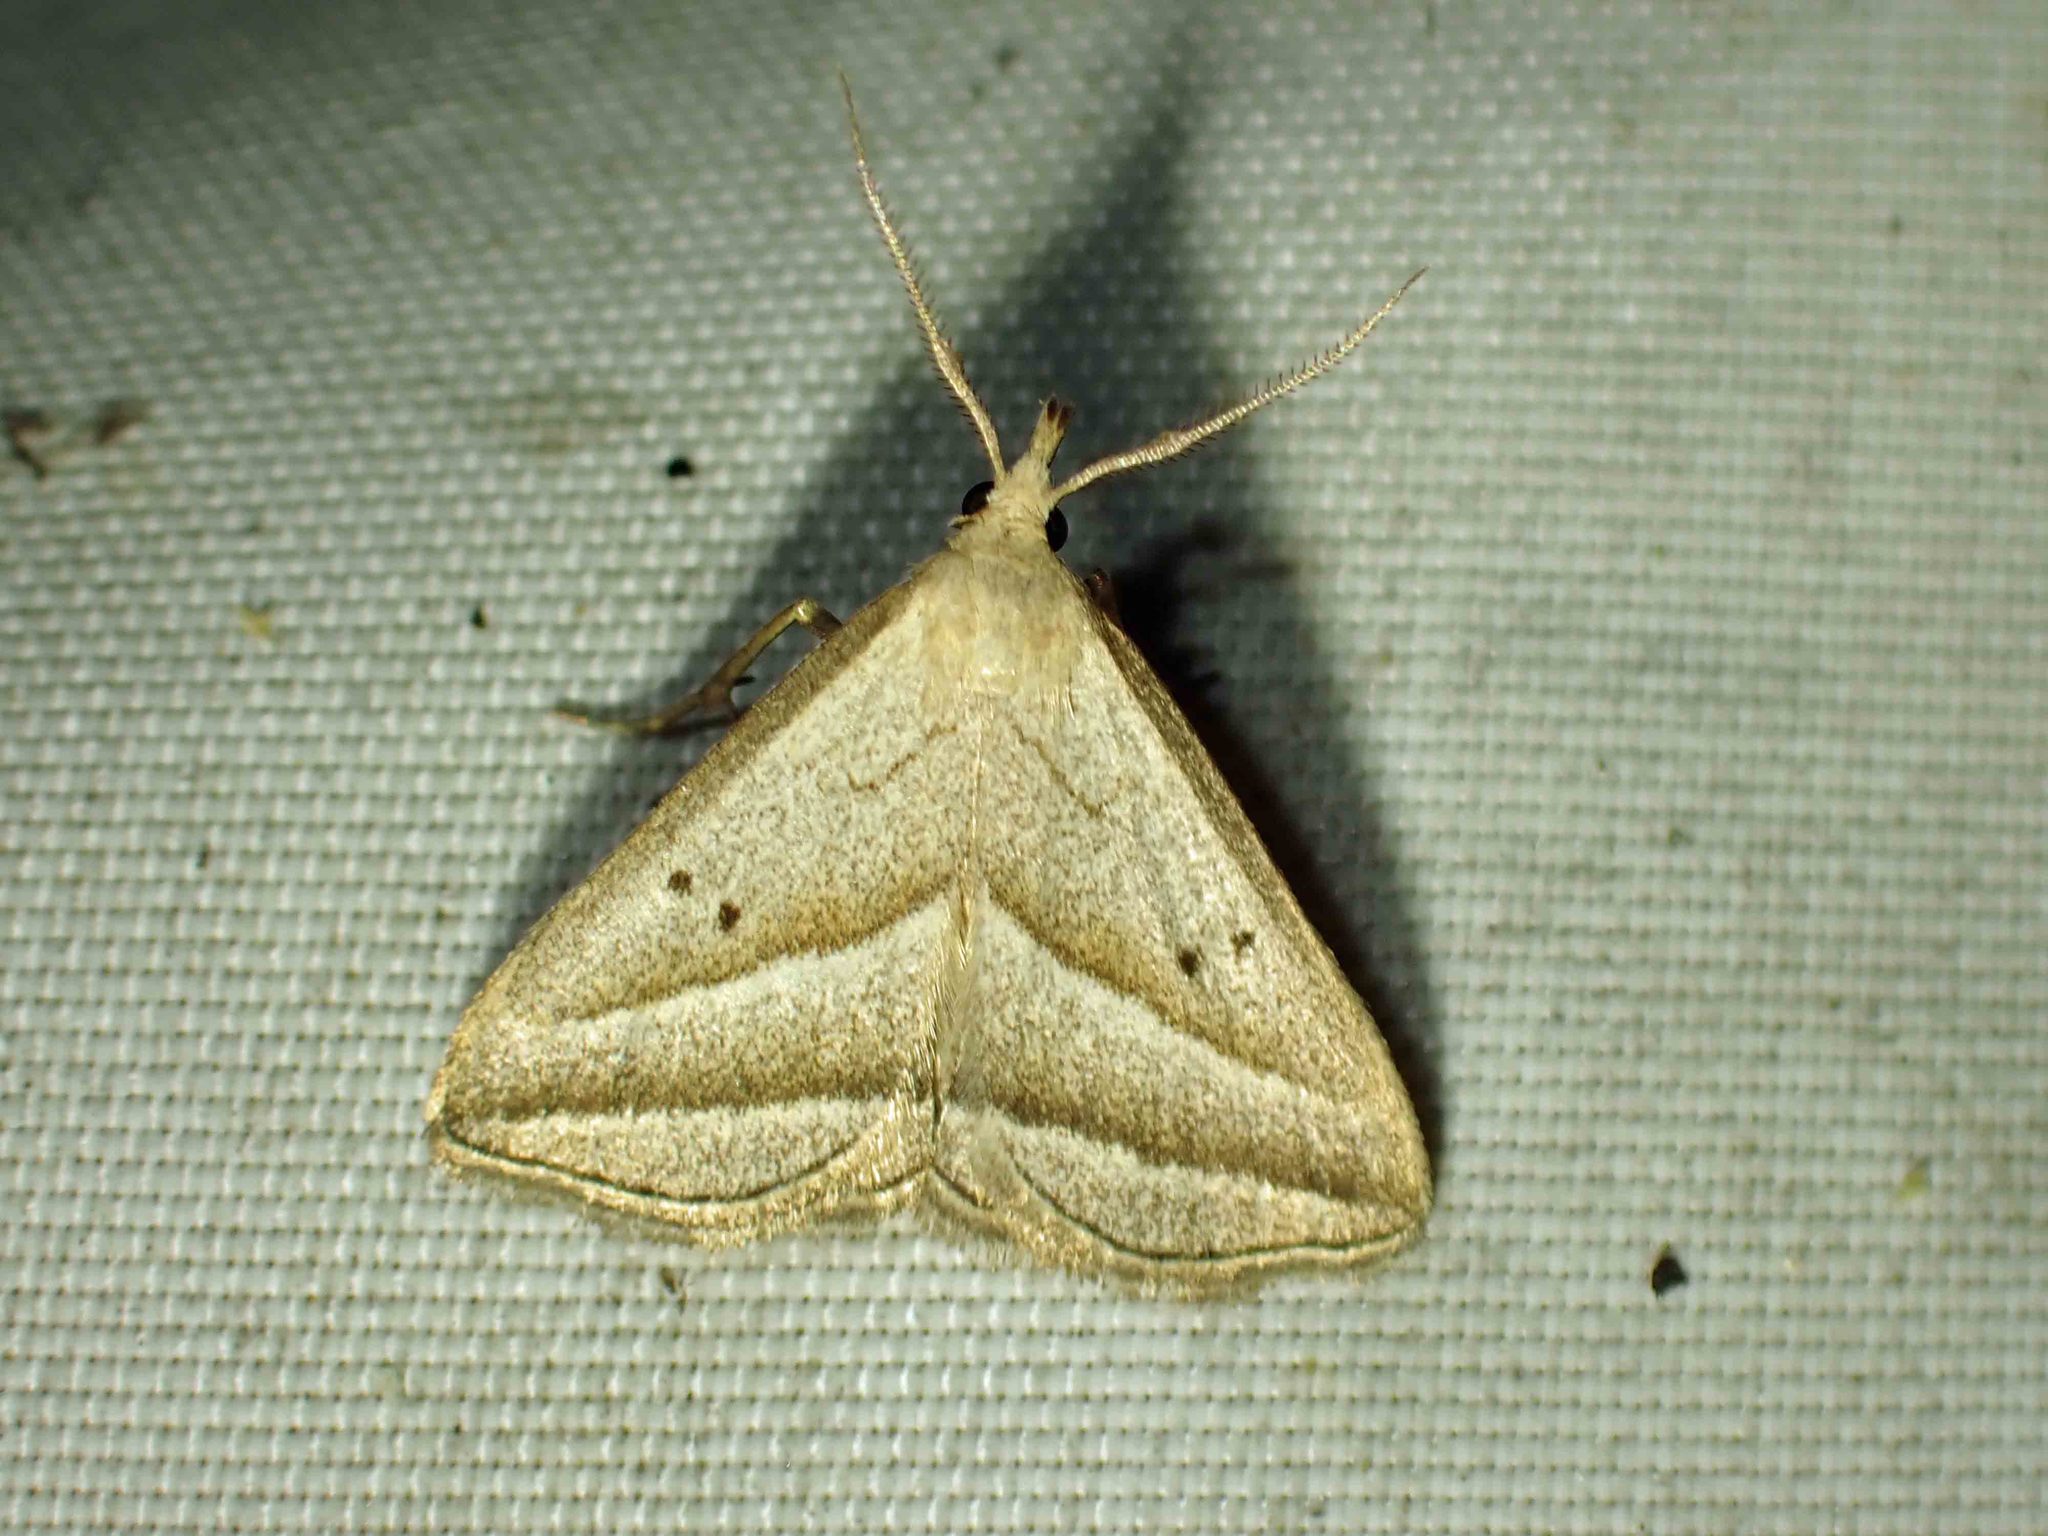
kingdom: Animalia
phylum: Arthropoda
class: Insecta
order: Lepidoptera
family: Erebidae
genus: Macrochilo
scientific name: Macrochilo absorptalis
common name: Slant-lined owlet
